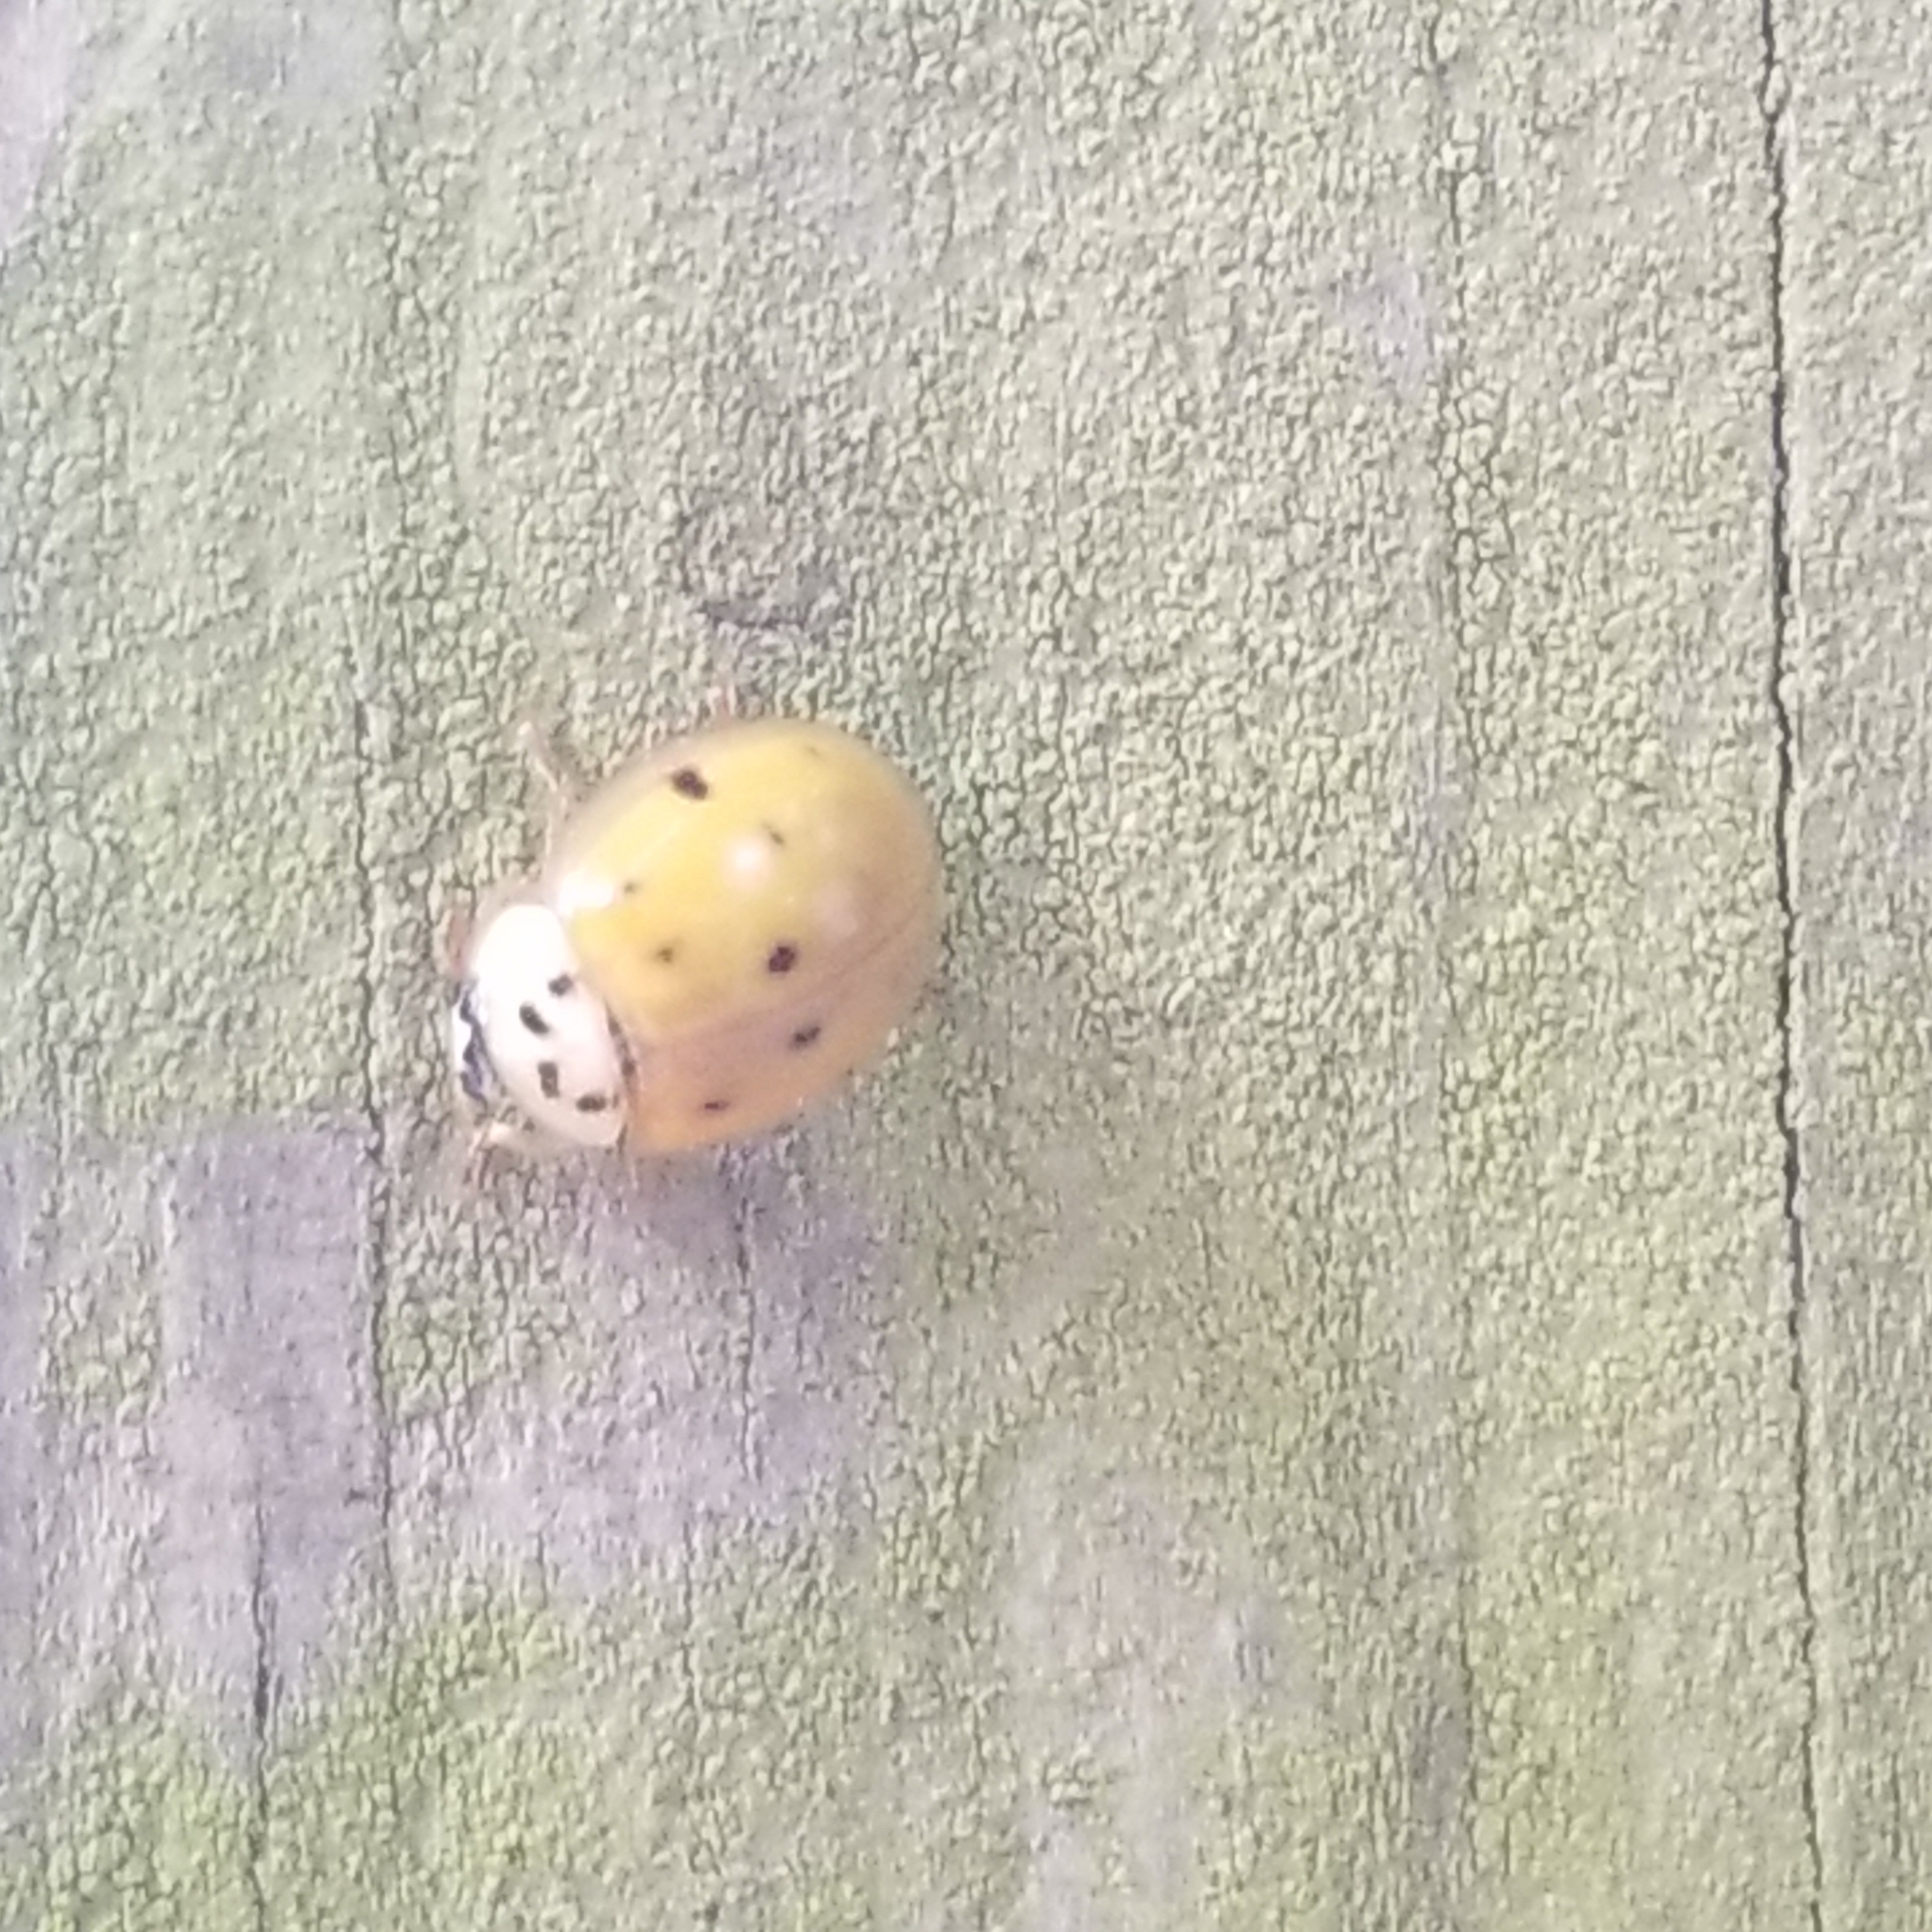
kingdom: Animalia
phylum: Arthropoda
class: Insecta
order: Coleoptera
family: Coccinellidae
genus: Harmonia
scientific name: Harmonia axyridis
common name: Harlequin ladybird
